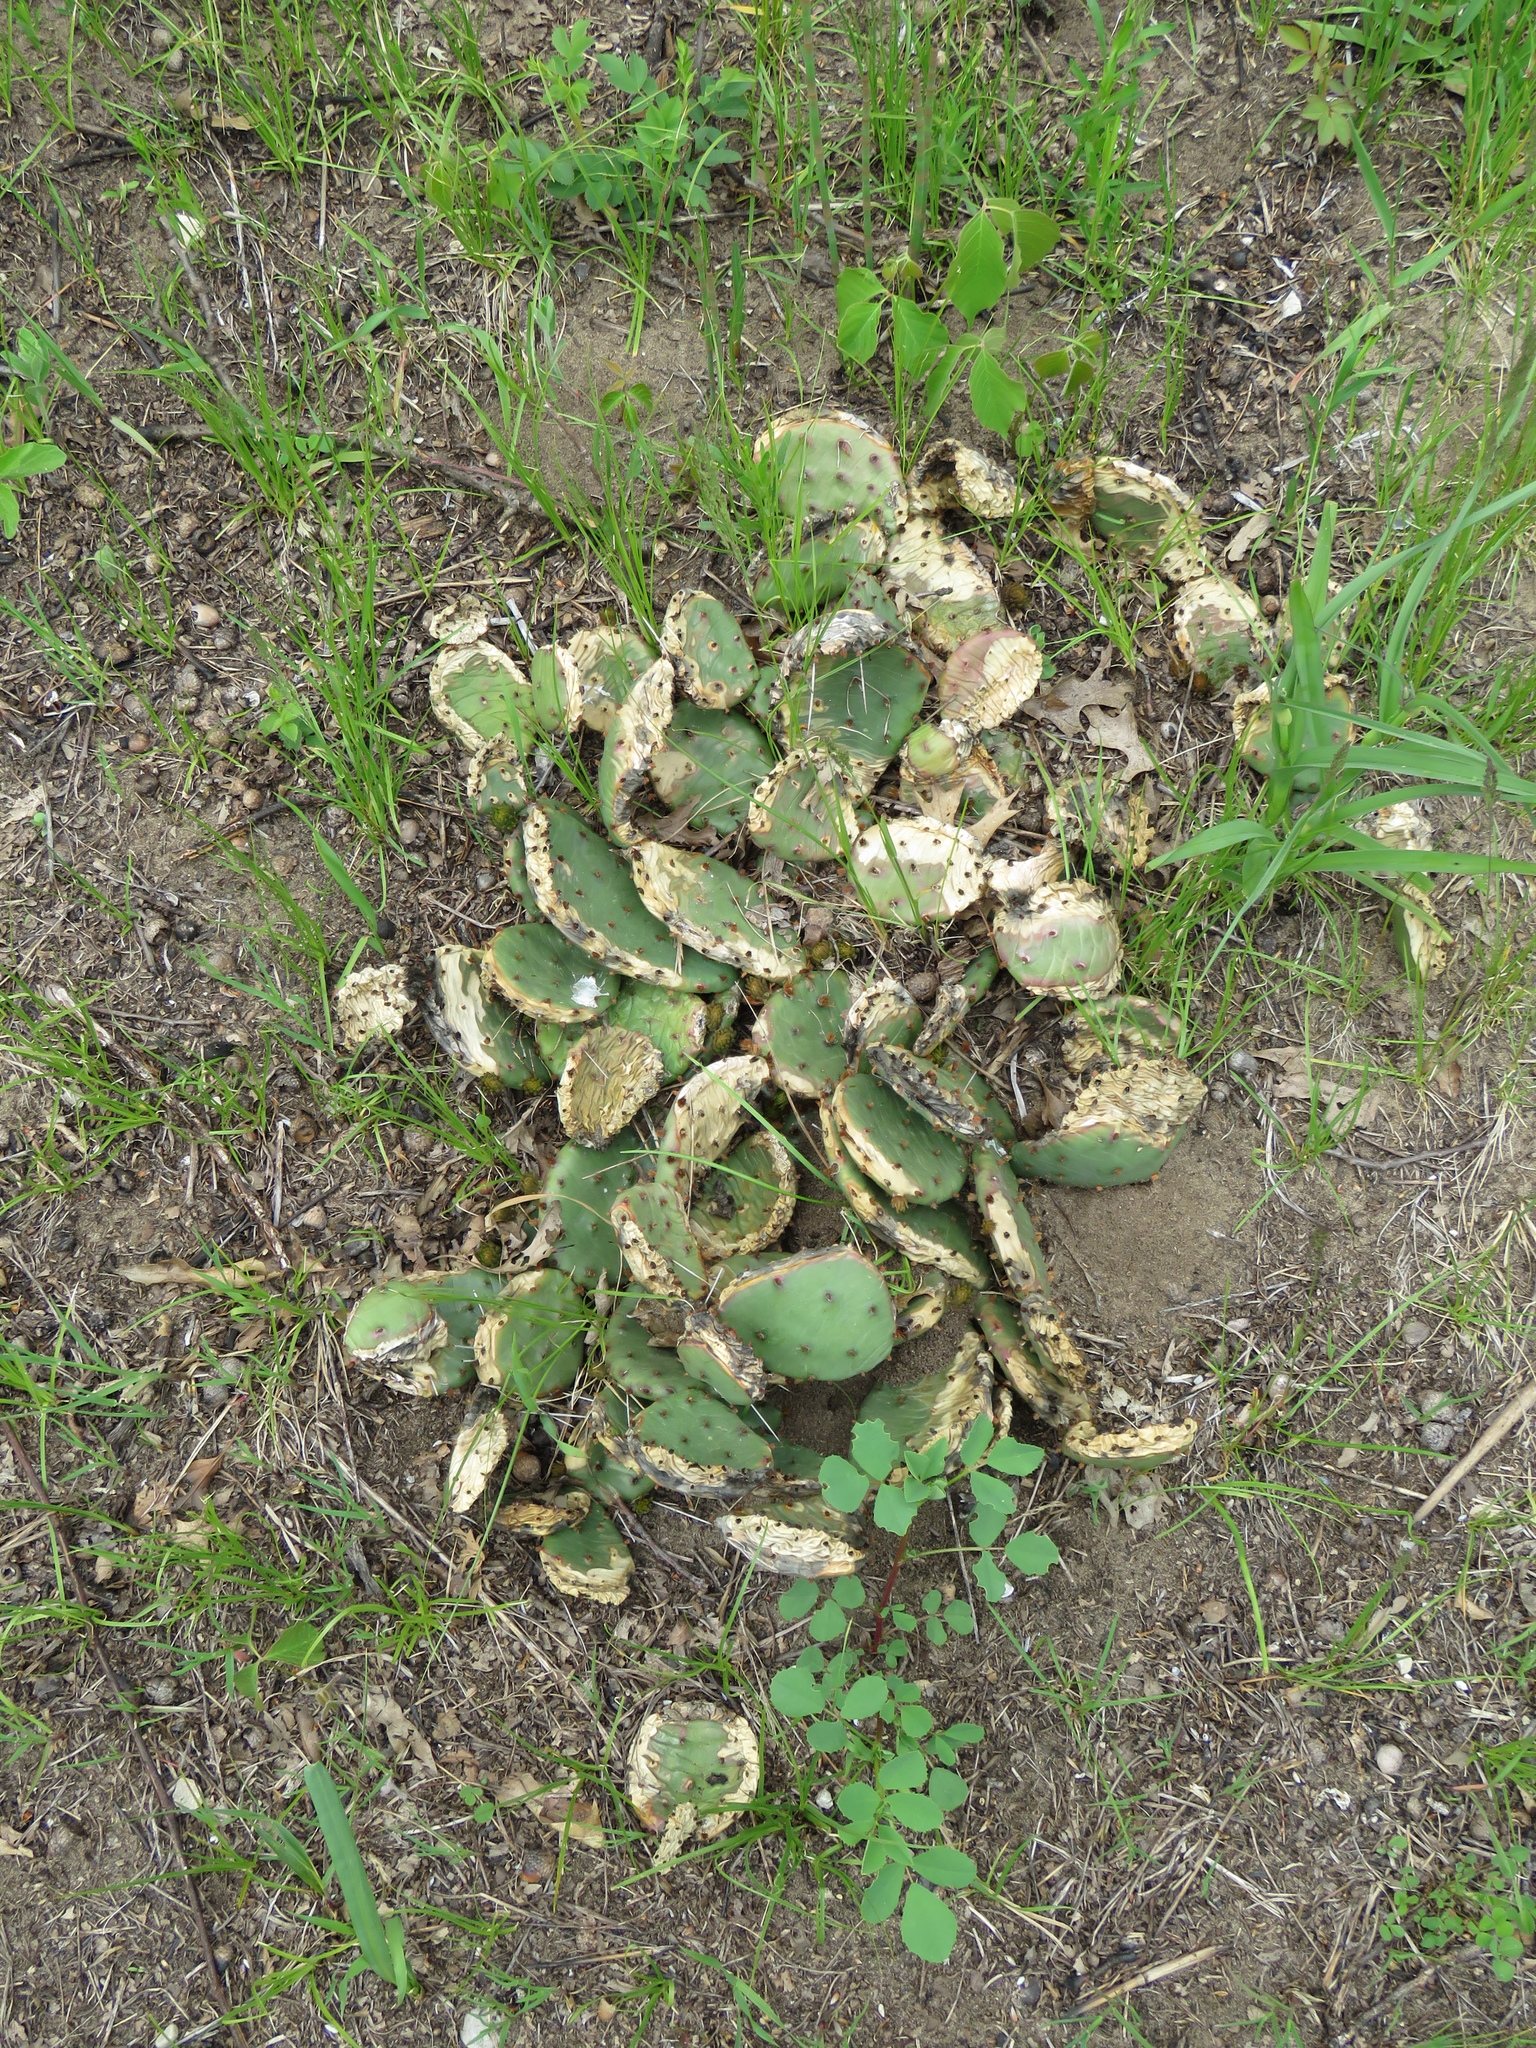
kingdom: Plantae
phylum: Tracheophyta
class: Magnoliopsida
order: Caryophyllales
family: Cactaceae
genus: Opuntia
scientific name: Opuntia humifusa
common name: Eastern prickly-pear
